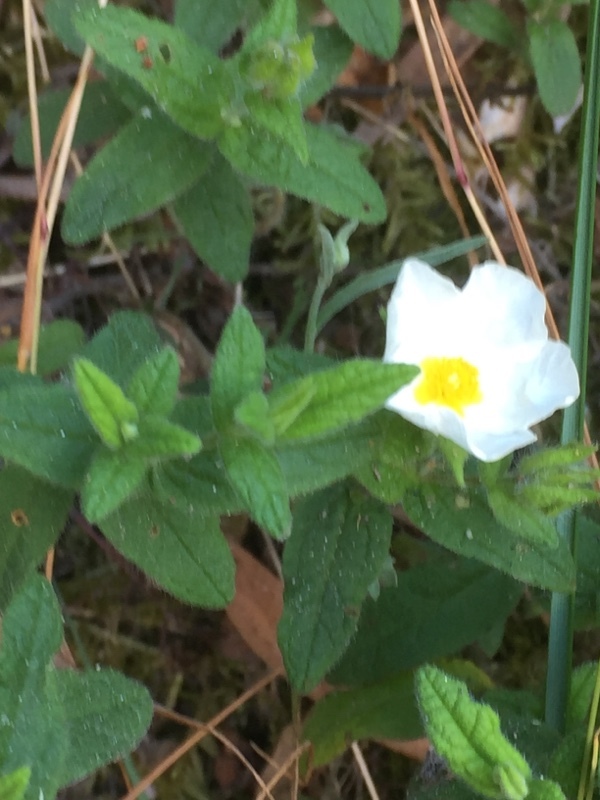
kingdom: Plantae
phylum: Tracheophyta
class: Magnoliopsida
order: Malvales
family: Cistaceae
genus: Cistus
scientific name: Cistus inflatus
